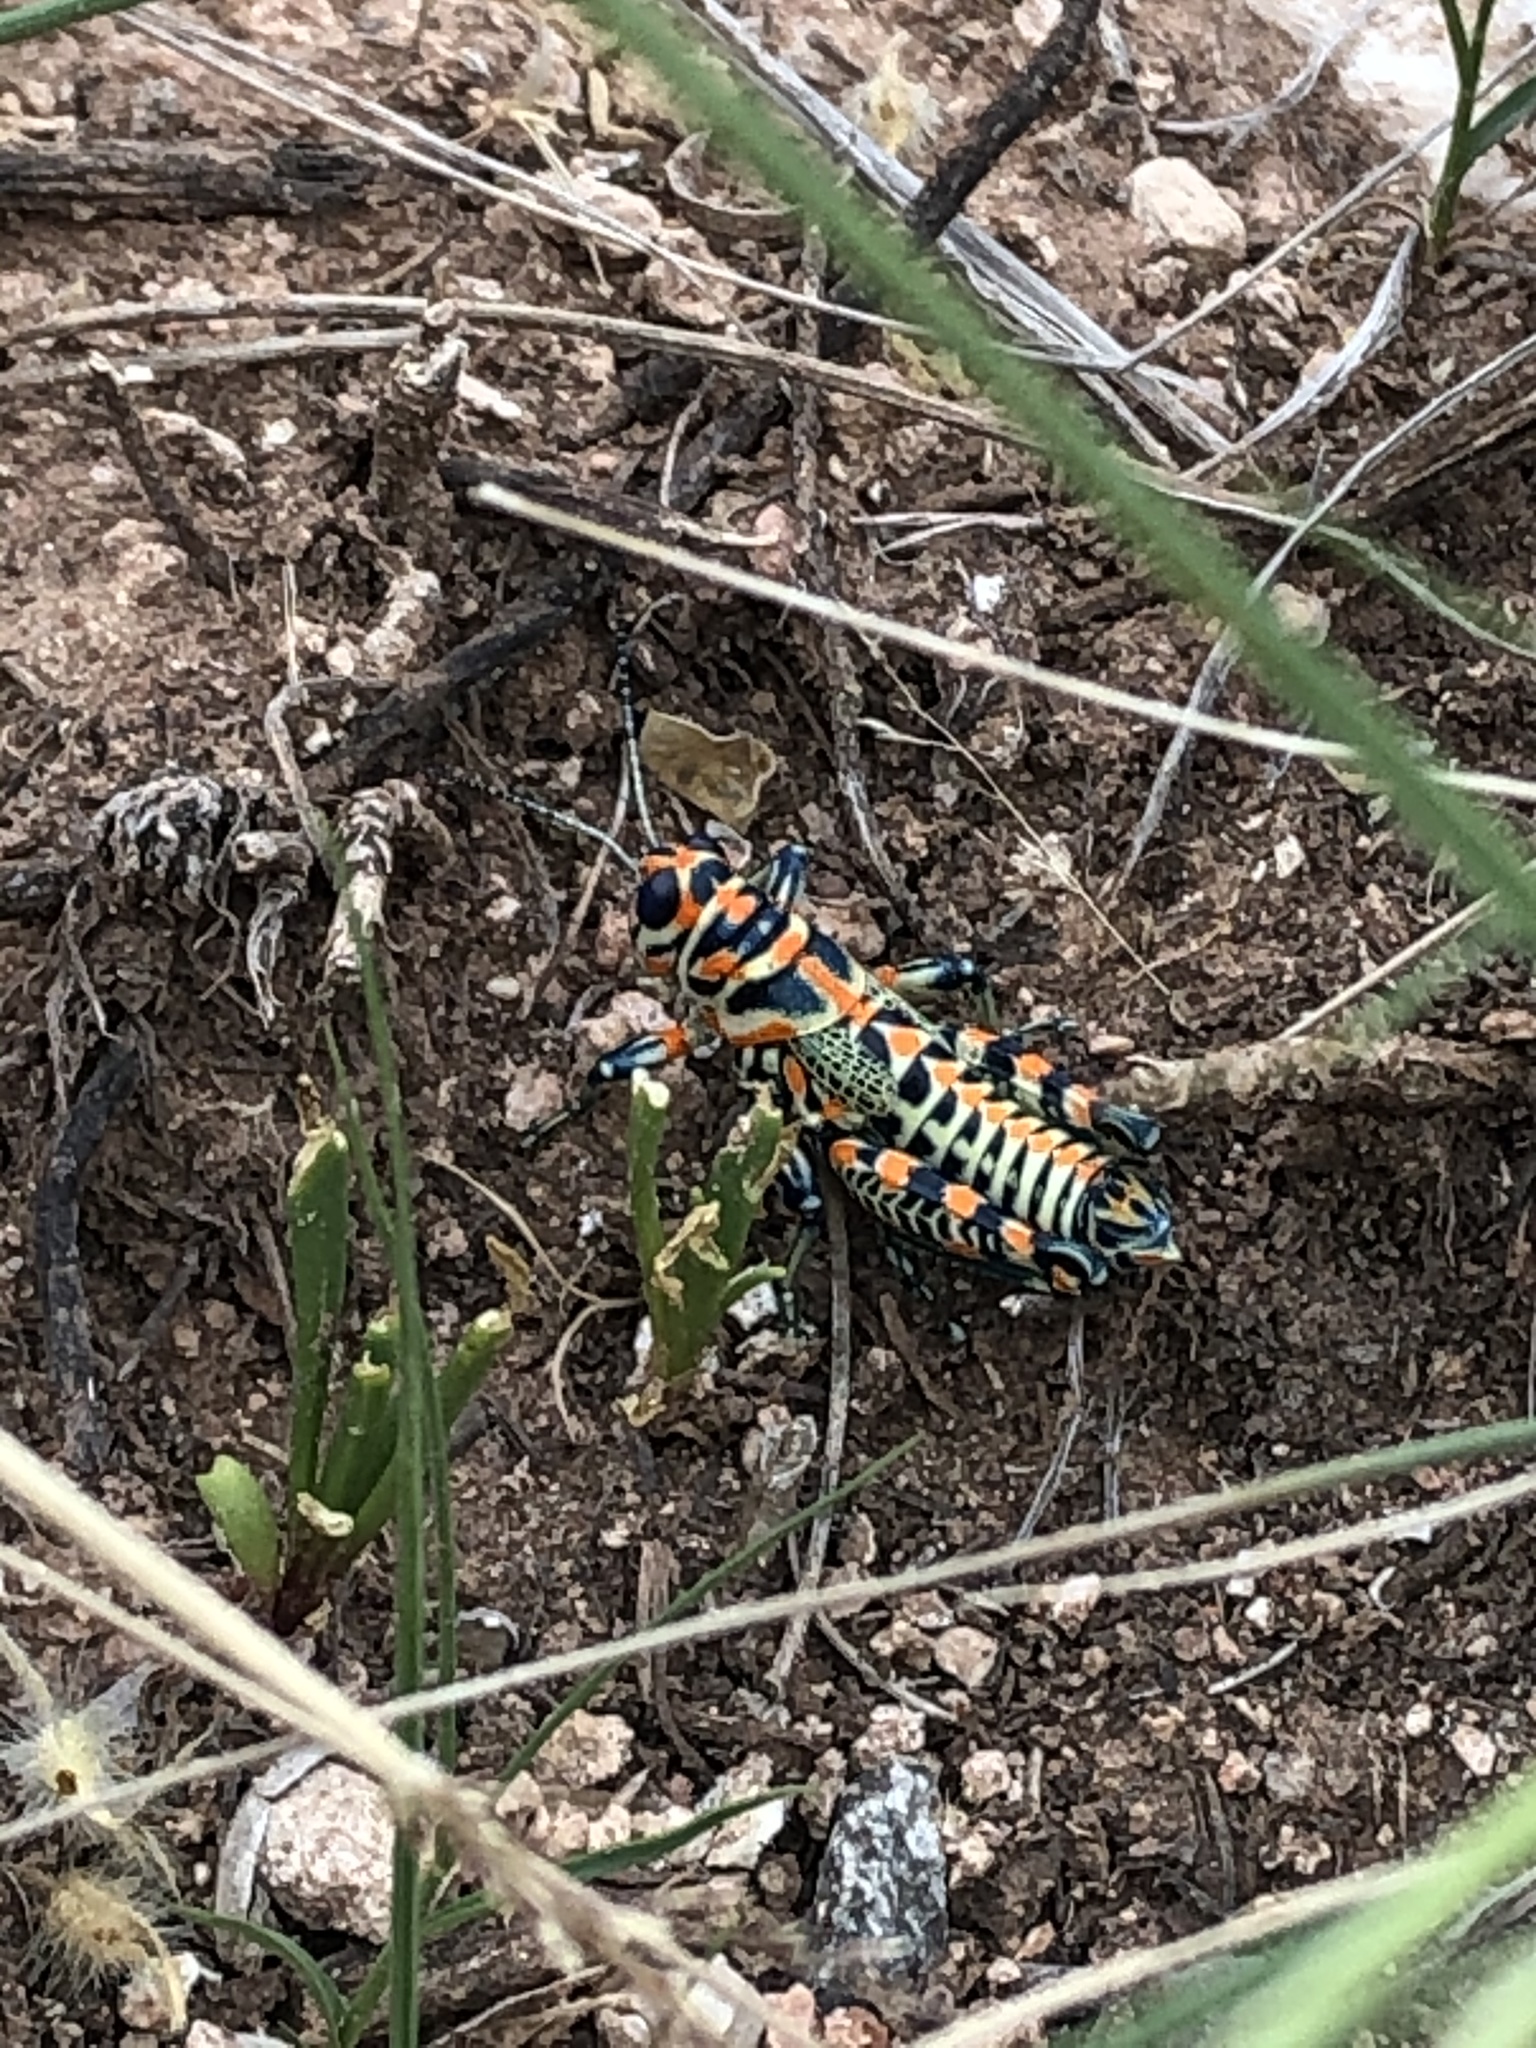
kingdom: Animalia
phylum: Arthropoda
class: Insecta
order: Orthoptera
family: Acrididae
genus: Dactylotum
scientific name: Dactylotum bicolor
